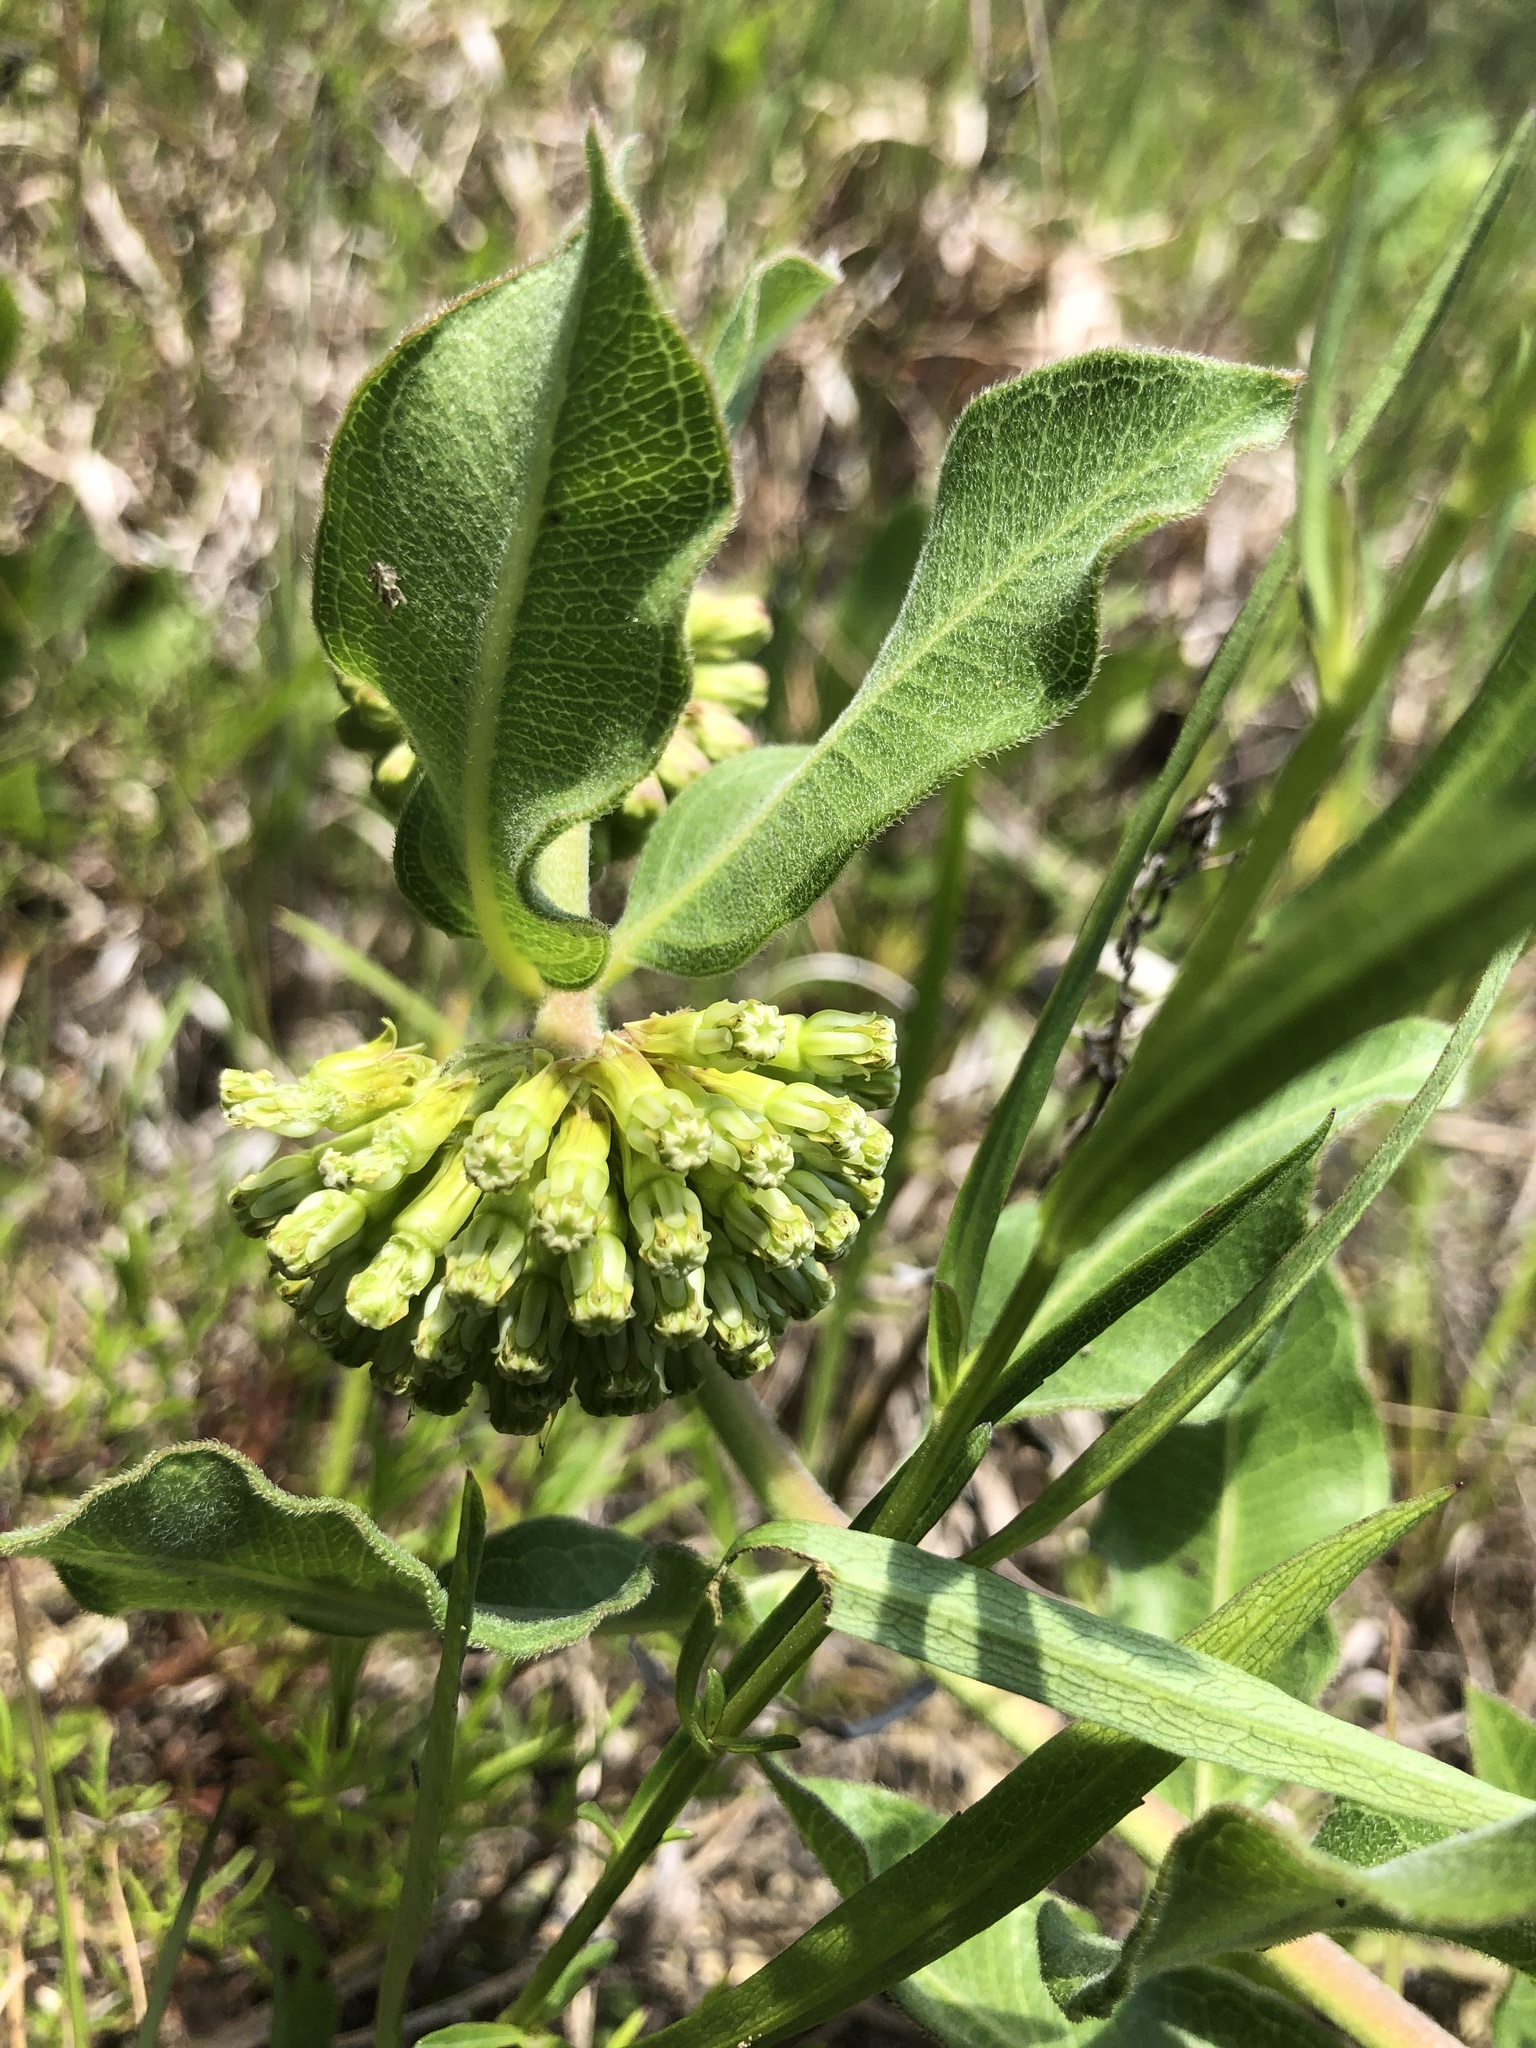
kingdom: Plantae
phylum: Tracheophyta
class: Magnoliopsida
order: Gentianales
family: Apocynaceae
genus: Asclepias
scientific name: Asclepias viridiflora
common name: Green comet milkweed
